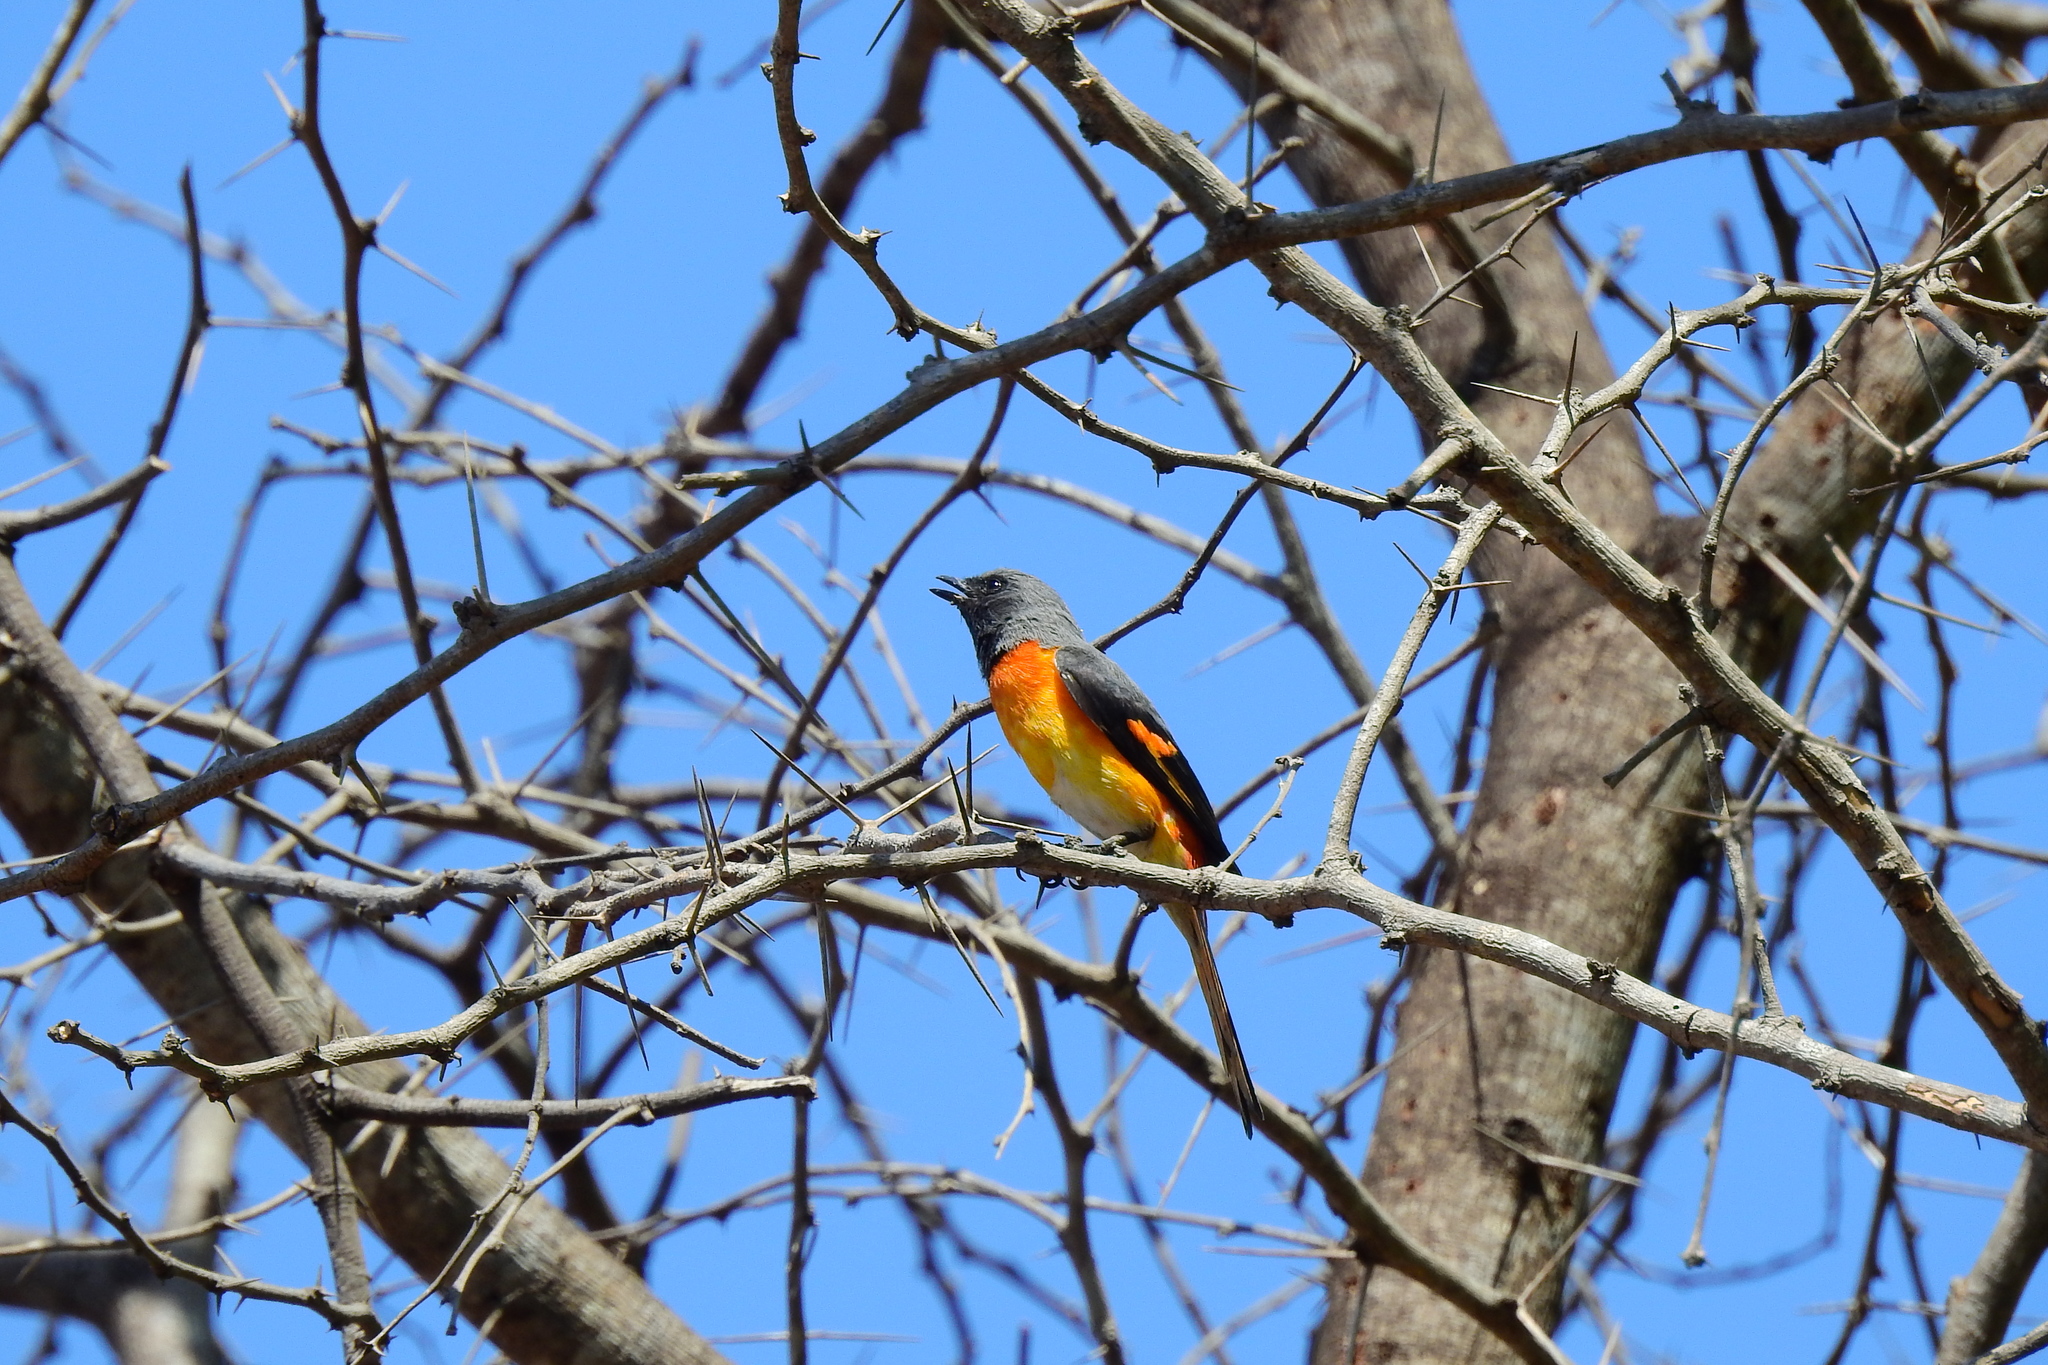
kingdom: Animalia
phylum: Chordata
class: Aves
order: Passeriformes
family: Campephagidae
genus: Pericrocotus
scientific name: Pericrocotus cinnamomeus
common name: Small minivet
